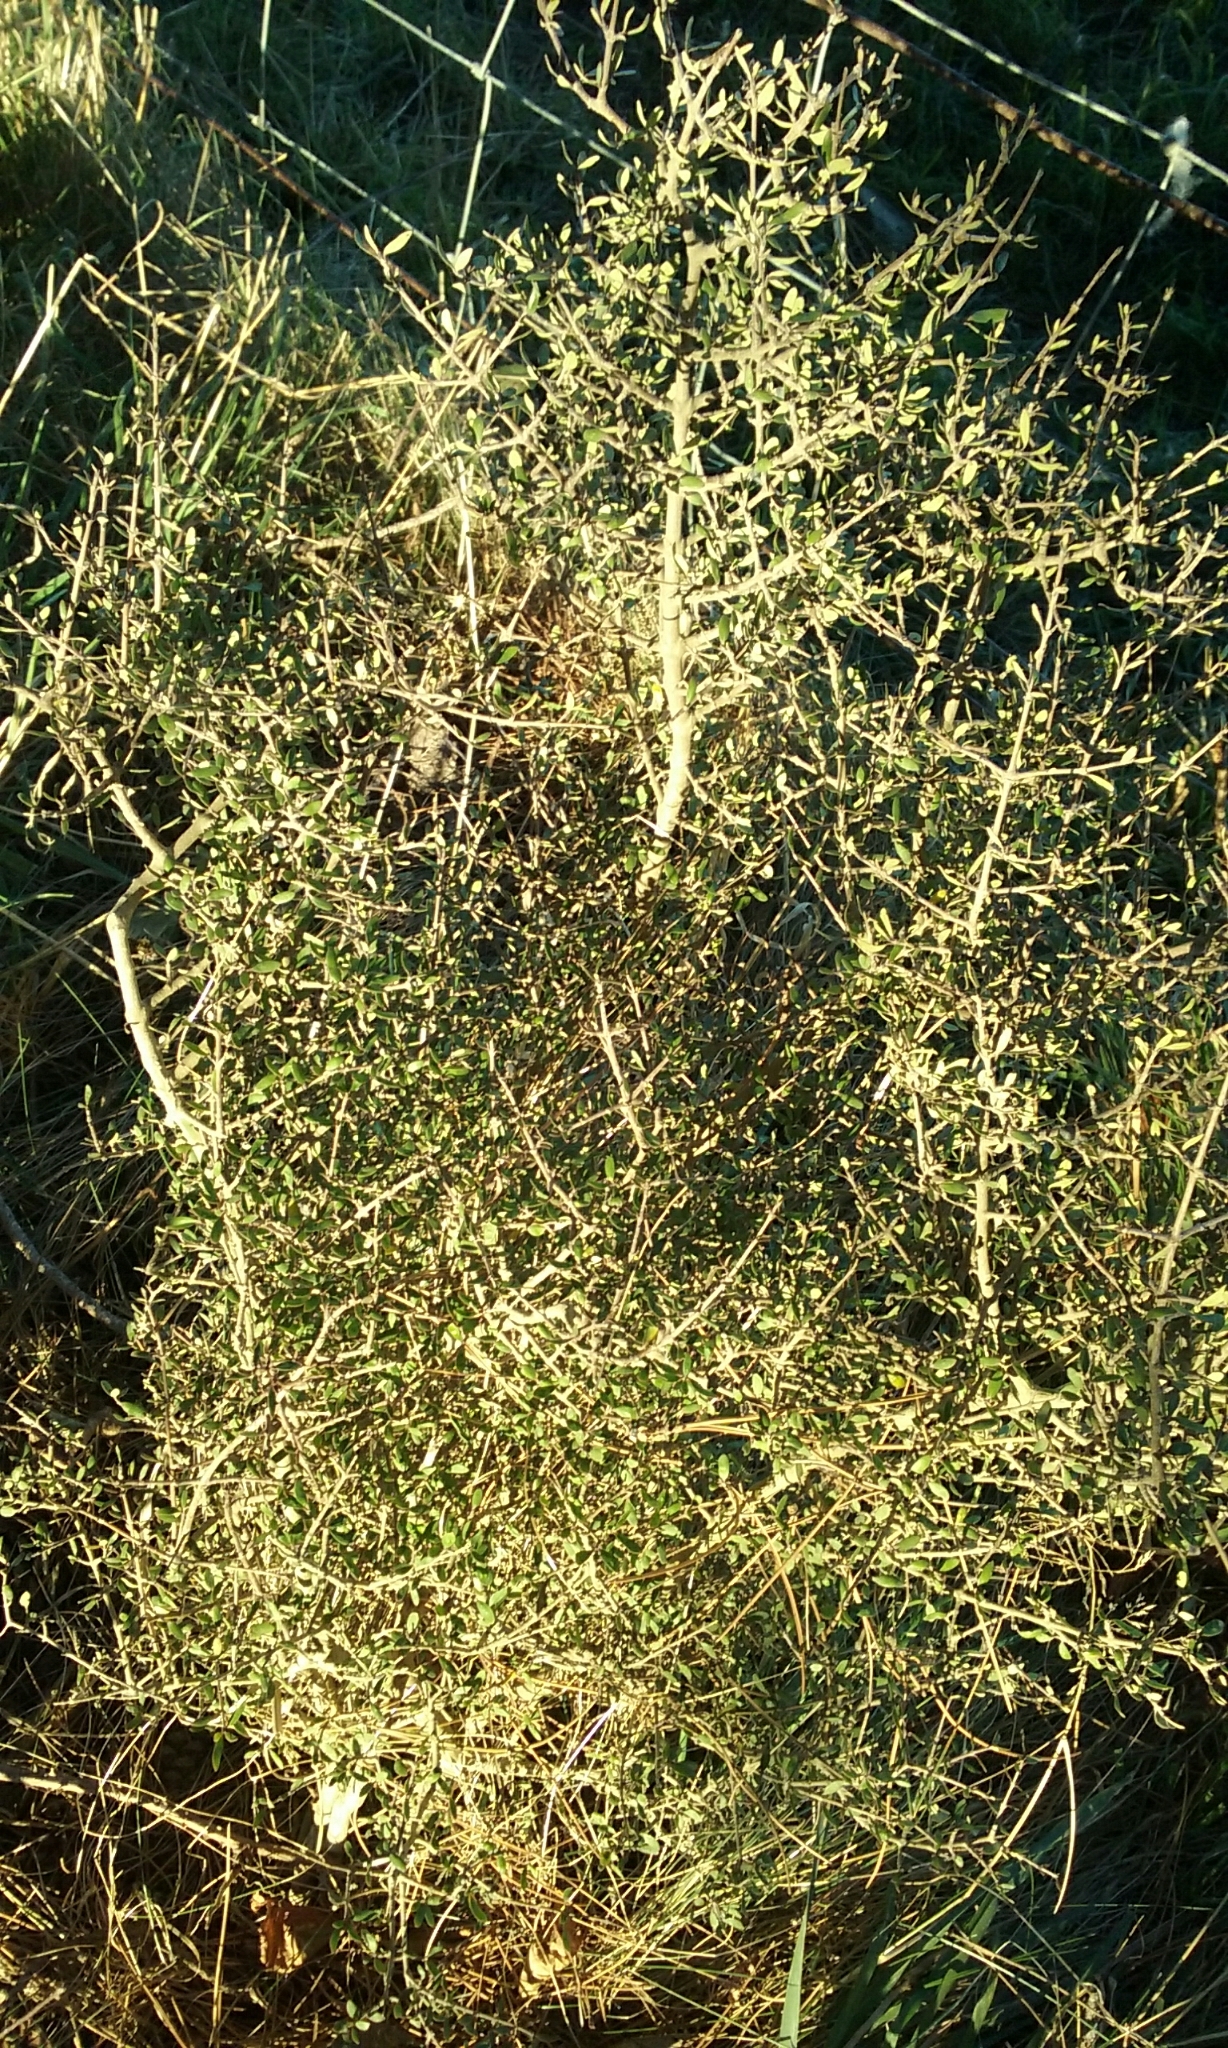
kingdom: Plantae
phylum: Tracheophyta
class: Magnoliopsida
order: Gentianales
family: Rubiaceae
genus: Coprosma
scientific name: Coprosma propinqua
